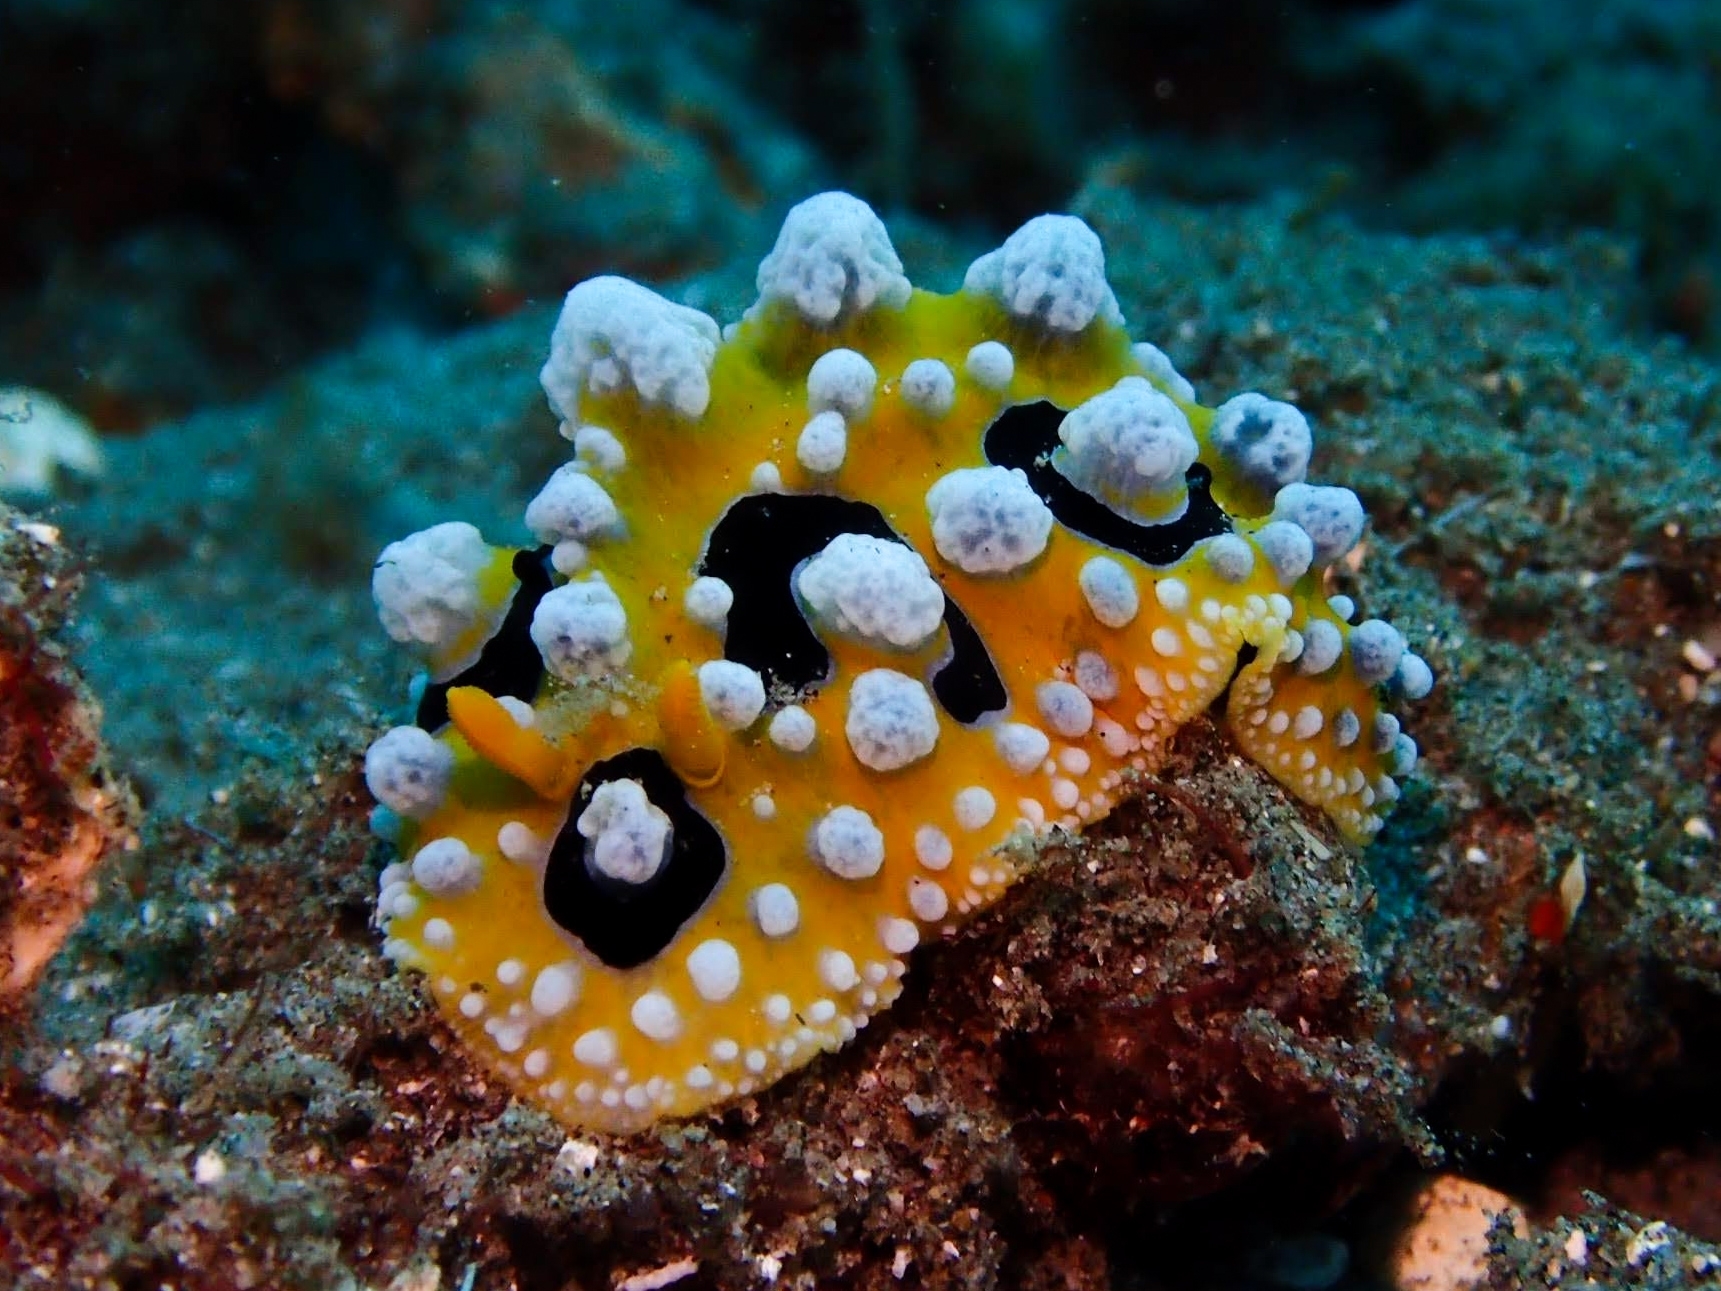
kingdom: Animalia
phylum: Mollusca
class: Gastropoda
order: Nudibranchia
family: Phyllidiidae
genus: Phyllidia
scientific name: Phyllidia ocellata
